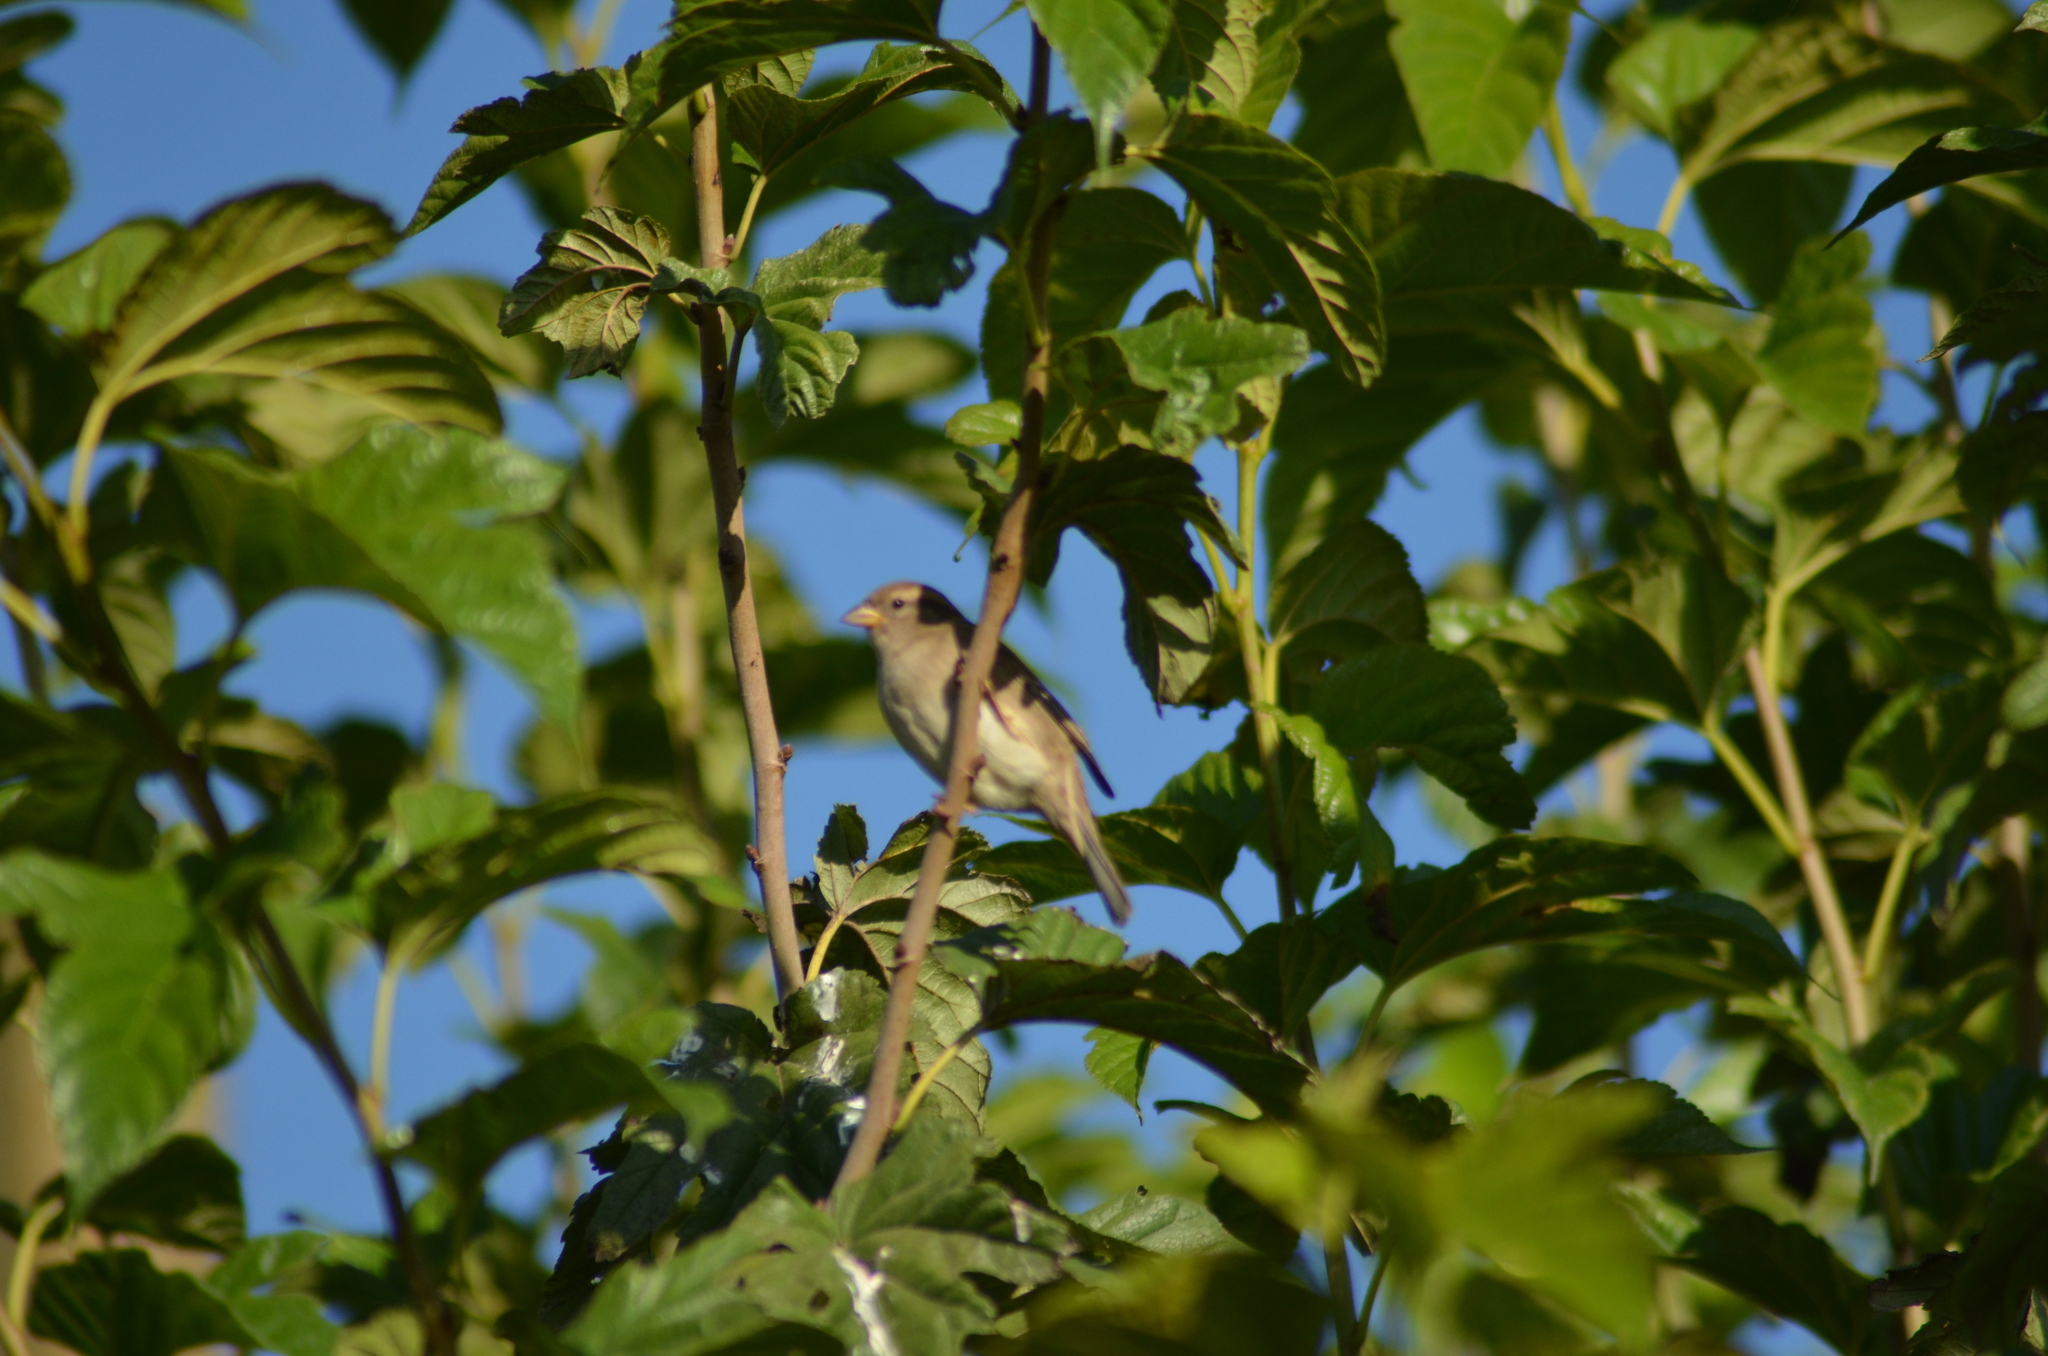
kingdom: Animalia
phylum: Chordata
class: Aves
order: Passeriformes
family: Passeridae
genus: Passer
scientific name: Passer domesticus
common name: House sparrow
